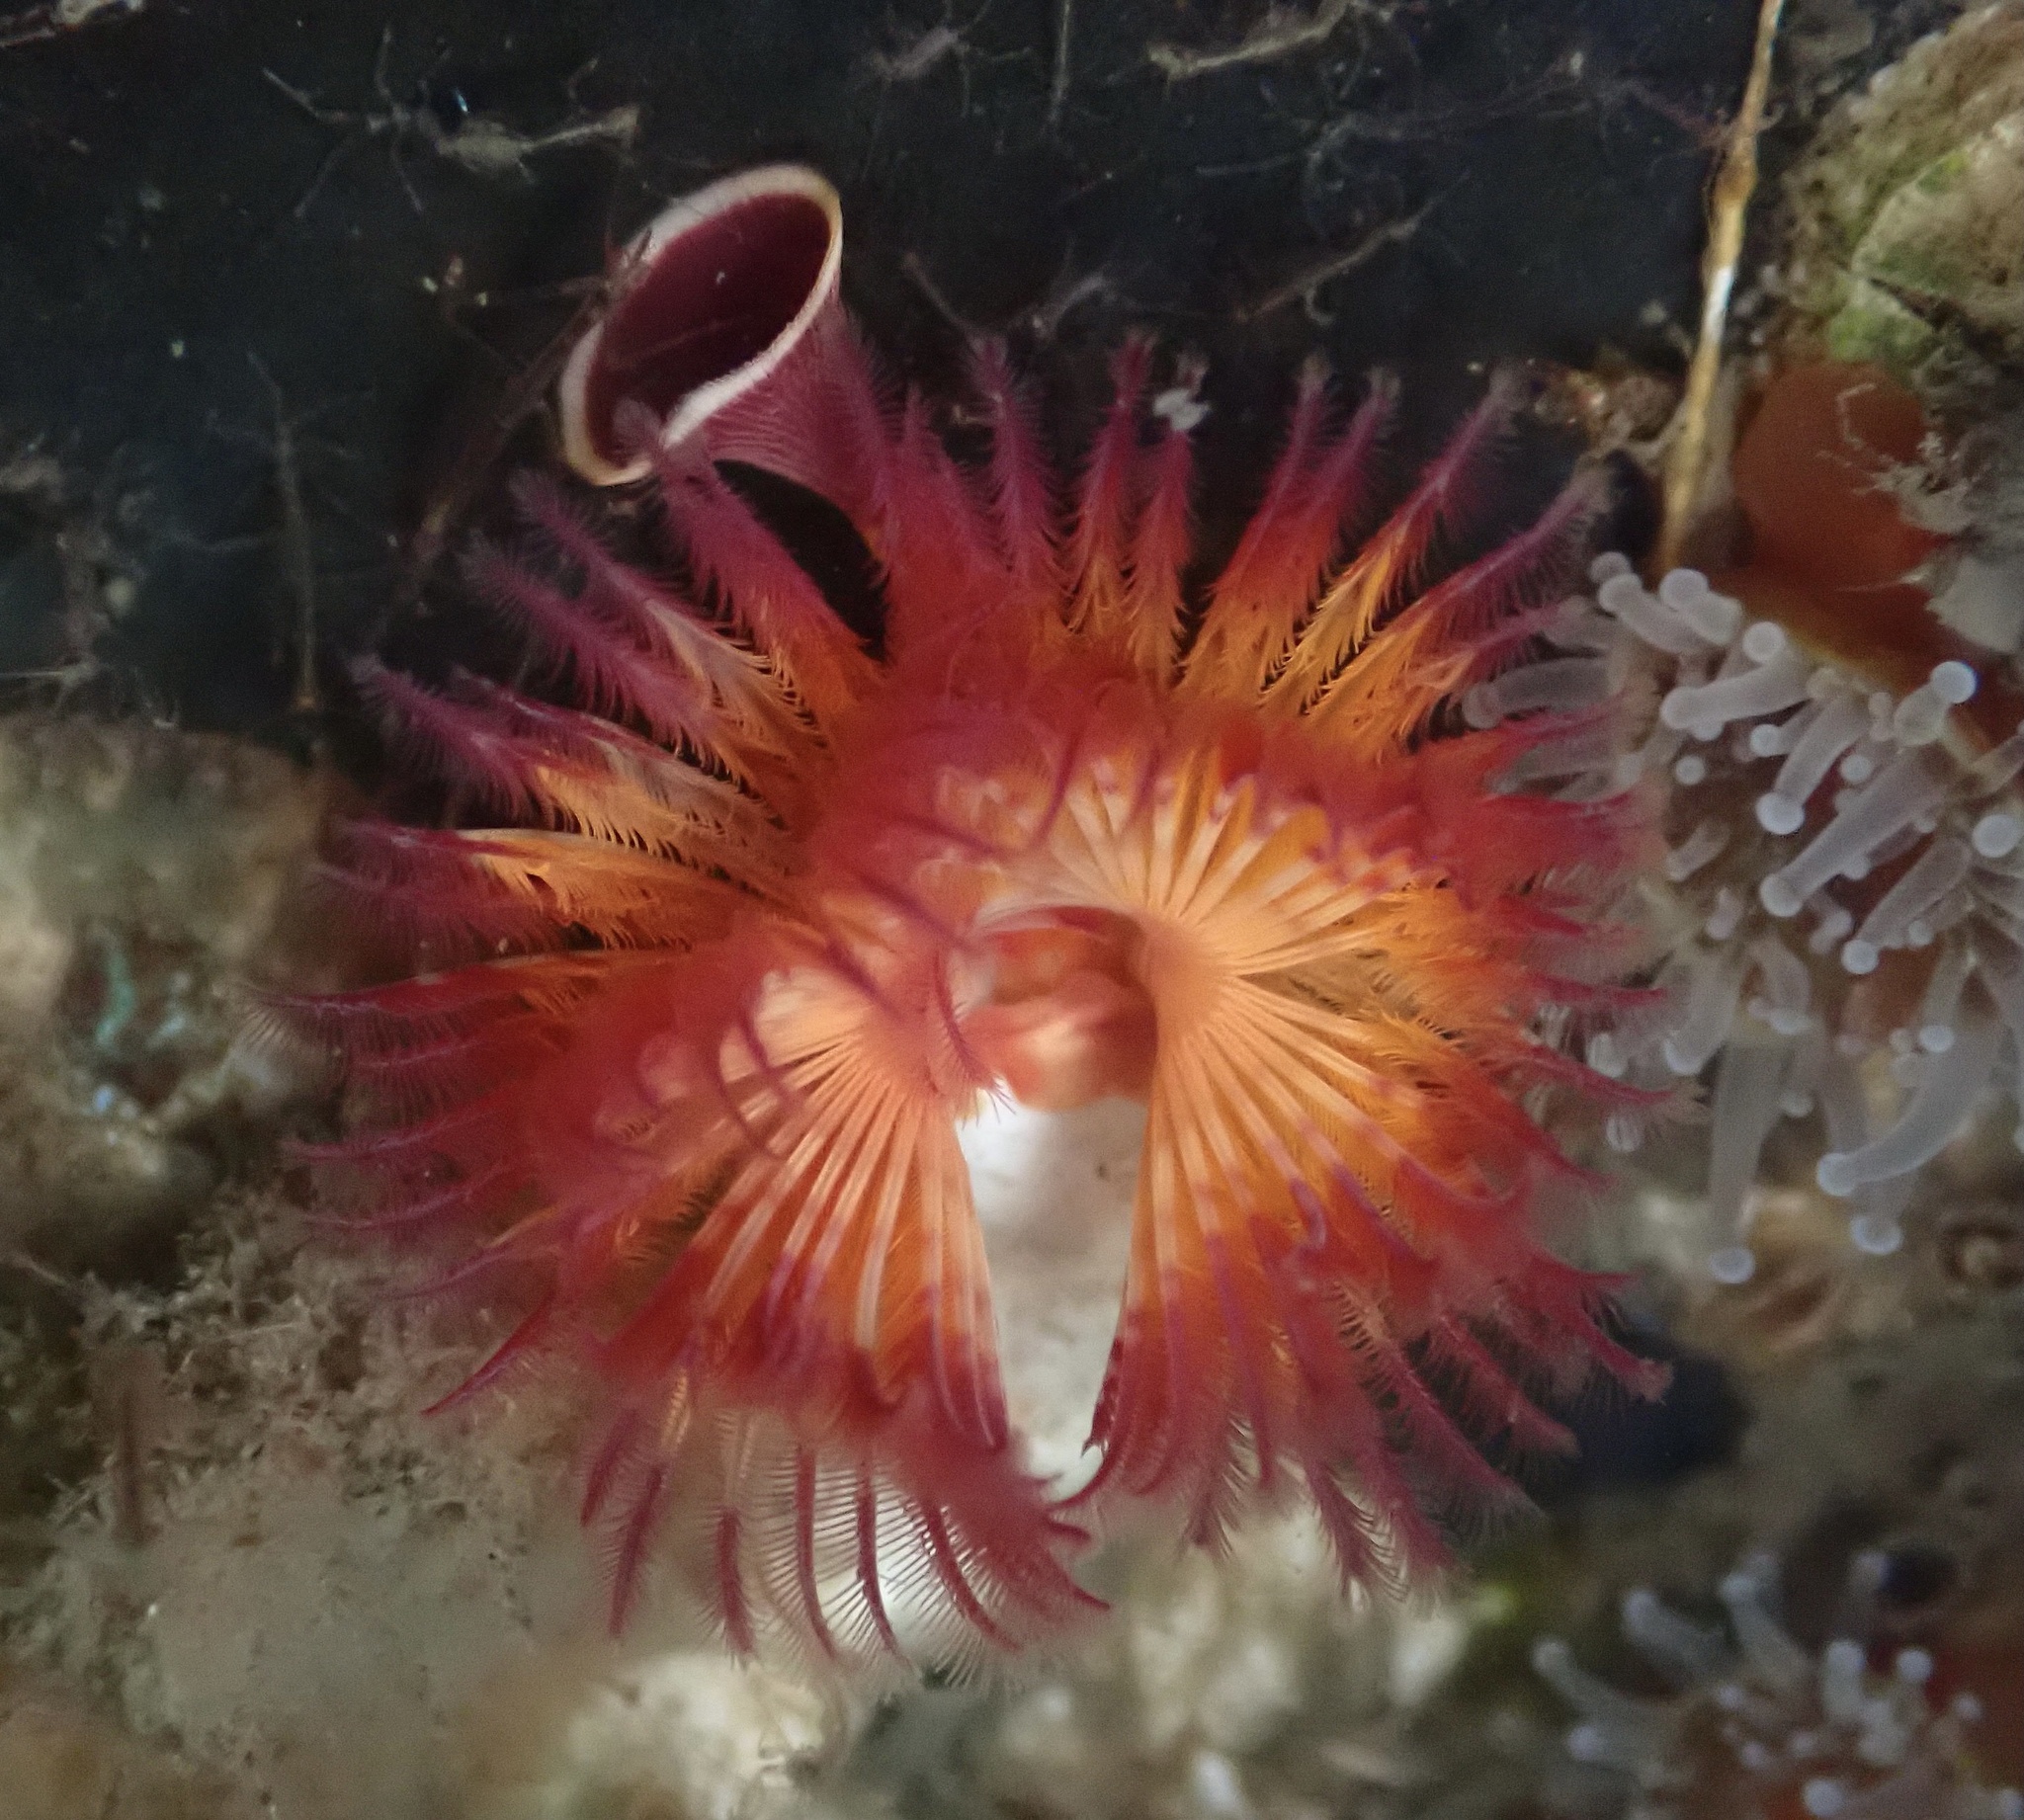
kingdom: Animalia
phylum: Annelida
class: Polychaeta
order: Sabellida
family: Serpulidae
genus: Serpula
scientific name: Serpula columbiana
